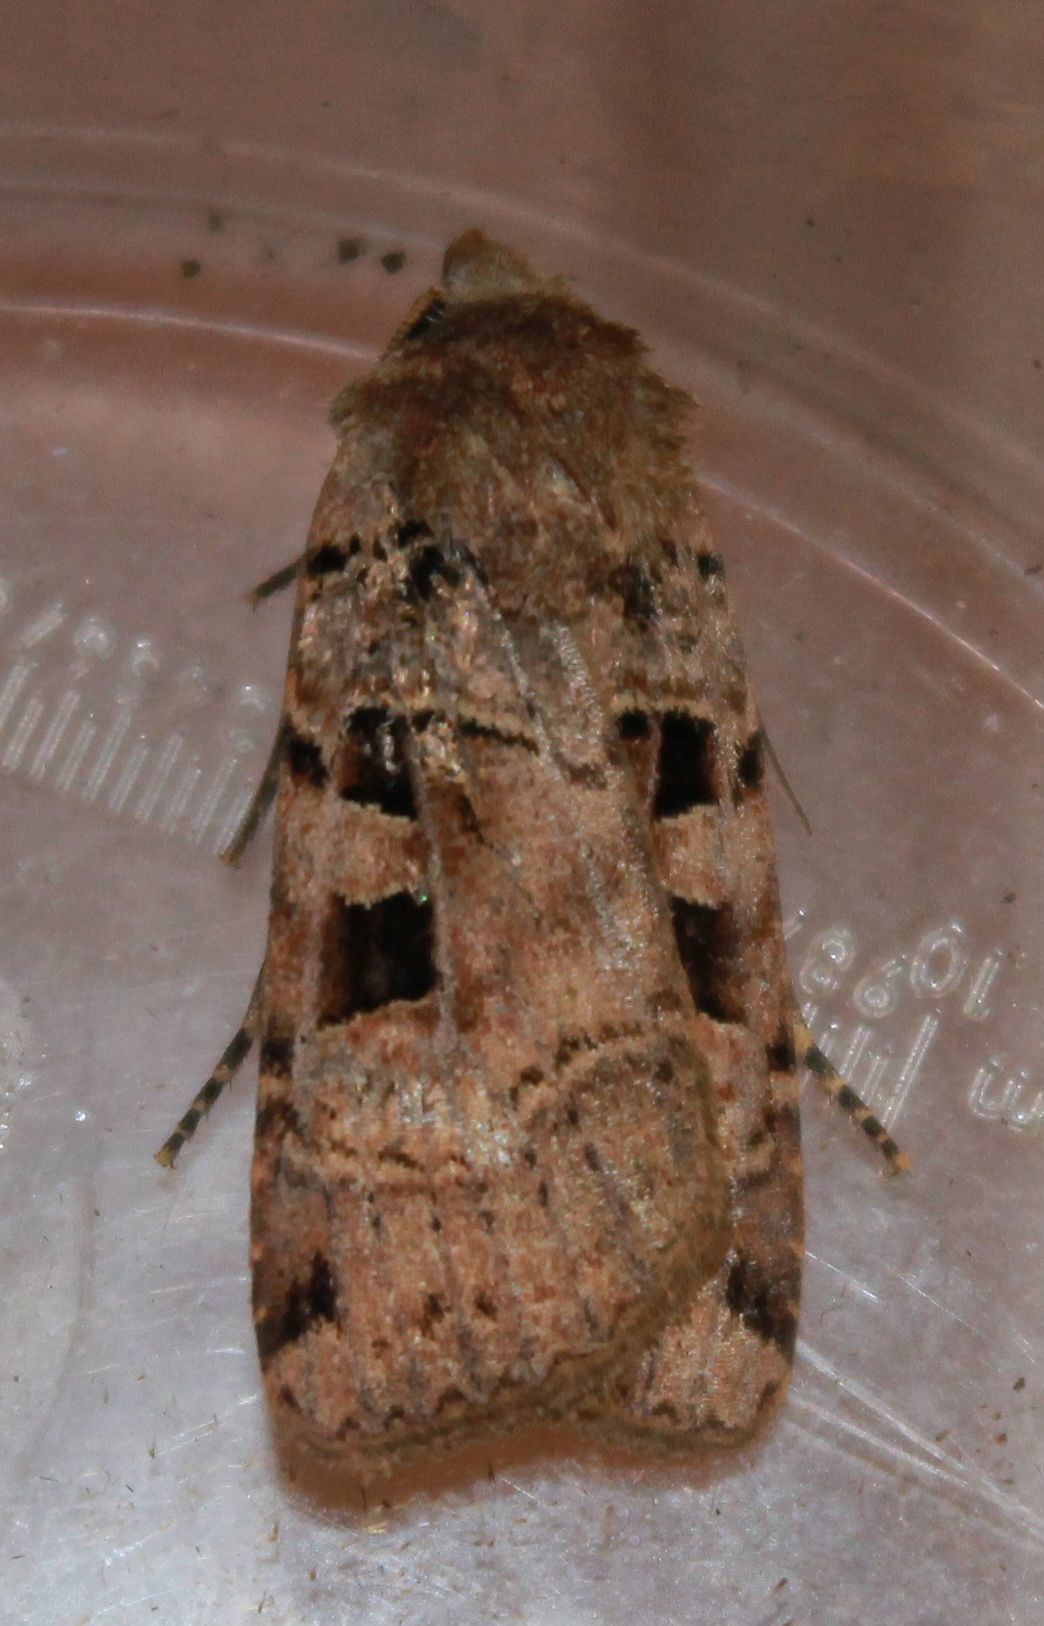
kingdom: Animalia
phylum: Arthropoda
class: Insecta
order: Lepidoptera
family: Noctuidae
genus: Xestia
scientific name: Xestia triangulum
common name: Double square-spot
